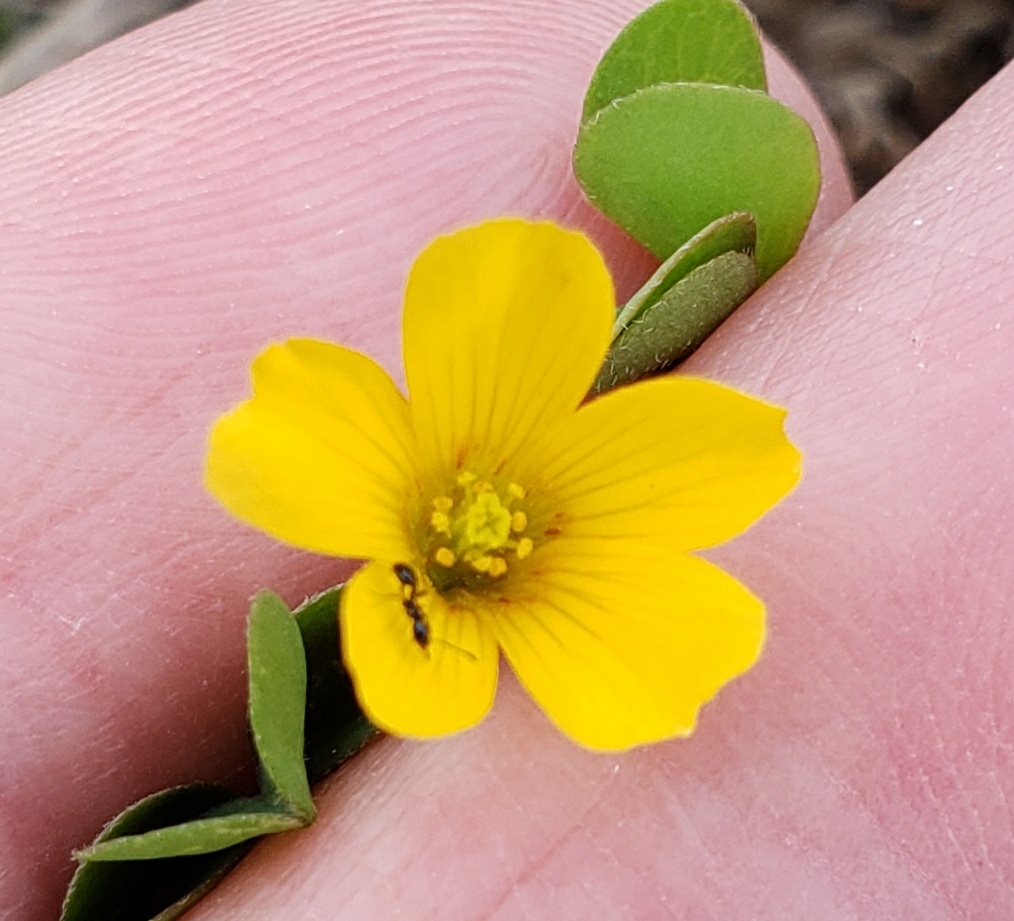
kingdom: Plantae
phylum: Tracheophyta
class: Magnoliopsida
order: Oxalidales
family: Oxalidaceae
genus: Oxalis
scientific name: Oxalis corniculata
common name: Procumbent yellow-sorrel
